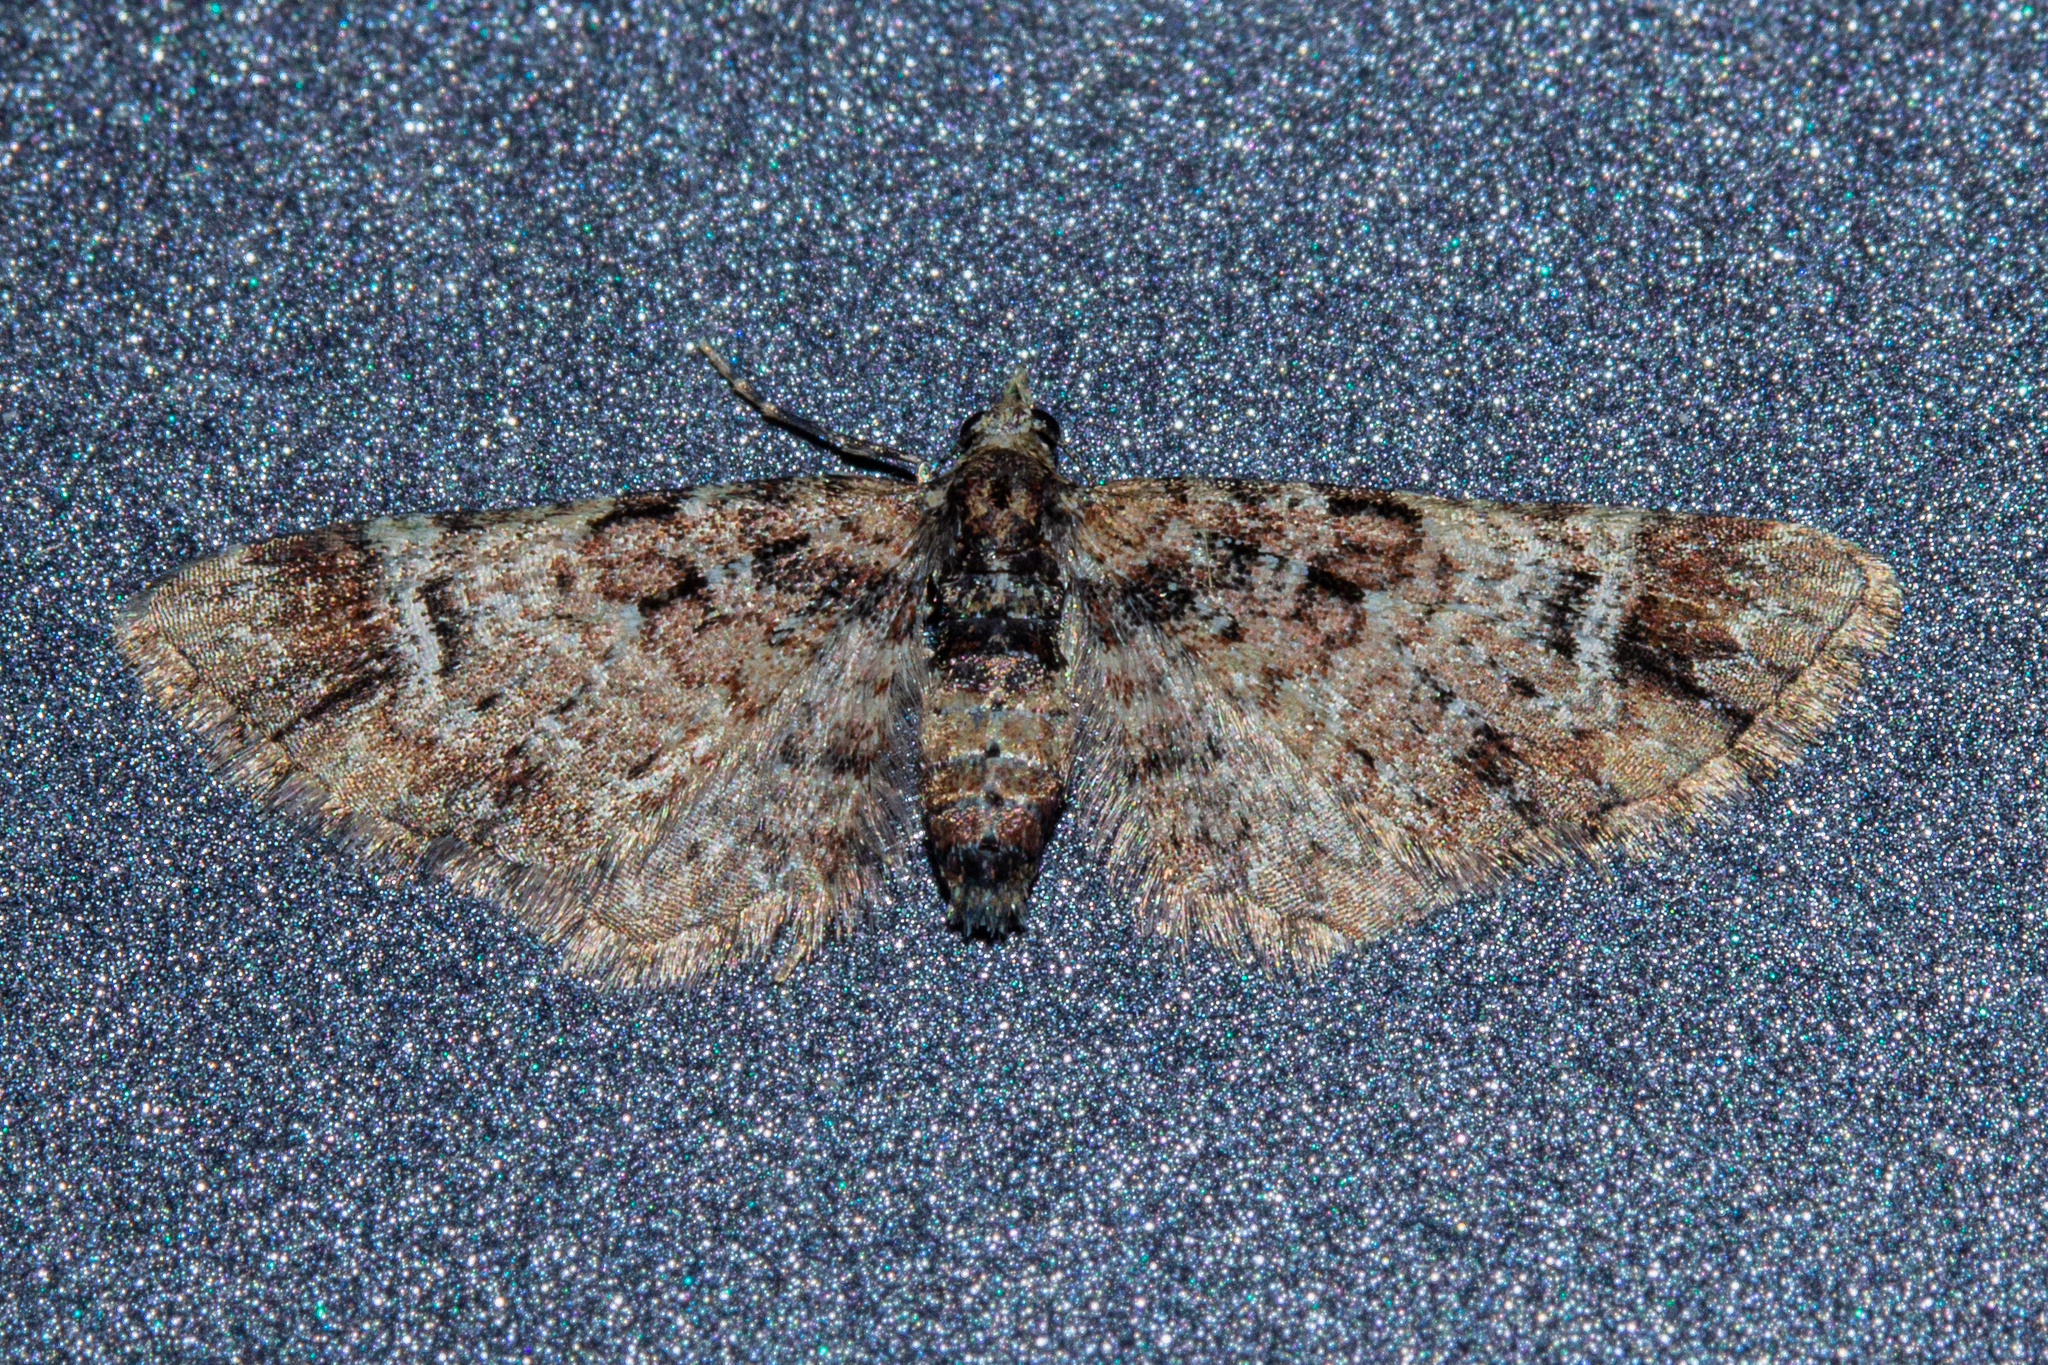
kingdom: Animalia
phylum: Arthropoda
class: Insecta
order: Lepidoptera
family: Geometridae
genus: Pasiphila
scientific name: Pasiphila sandycias
